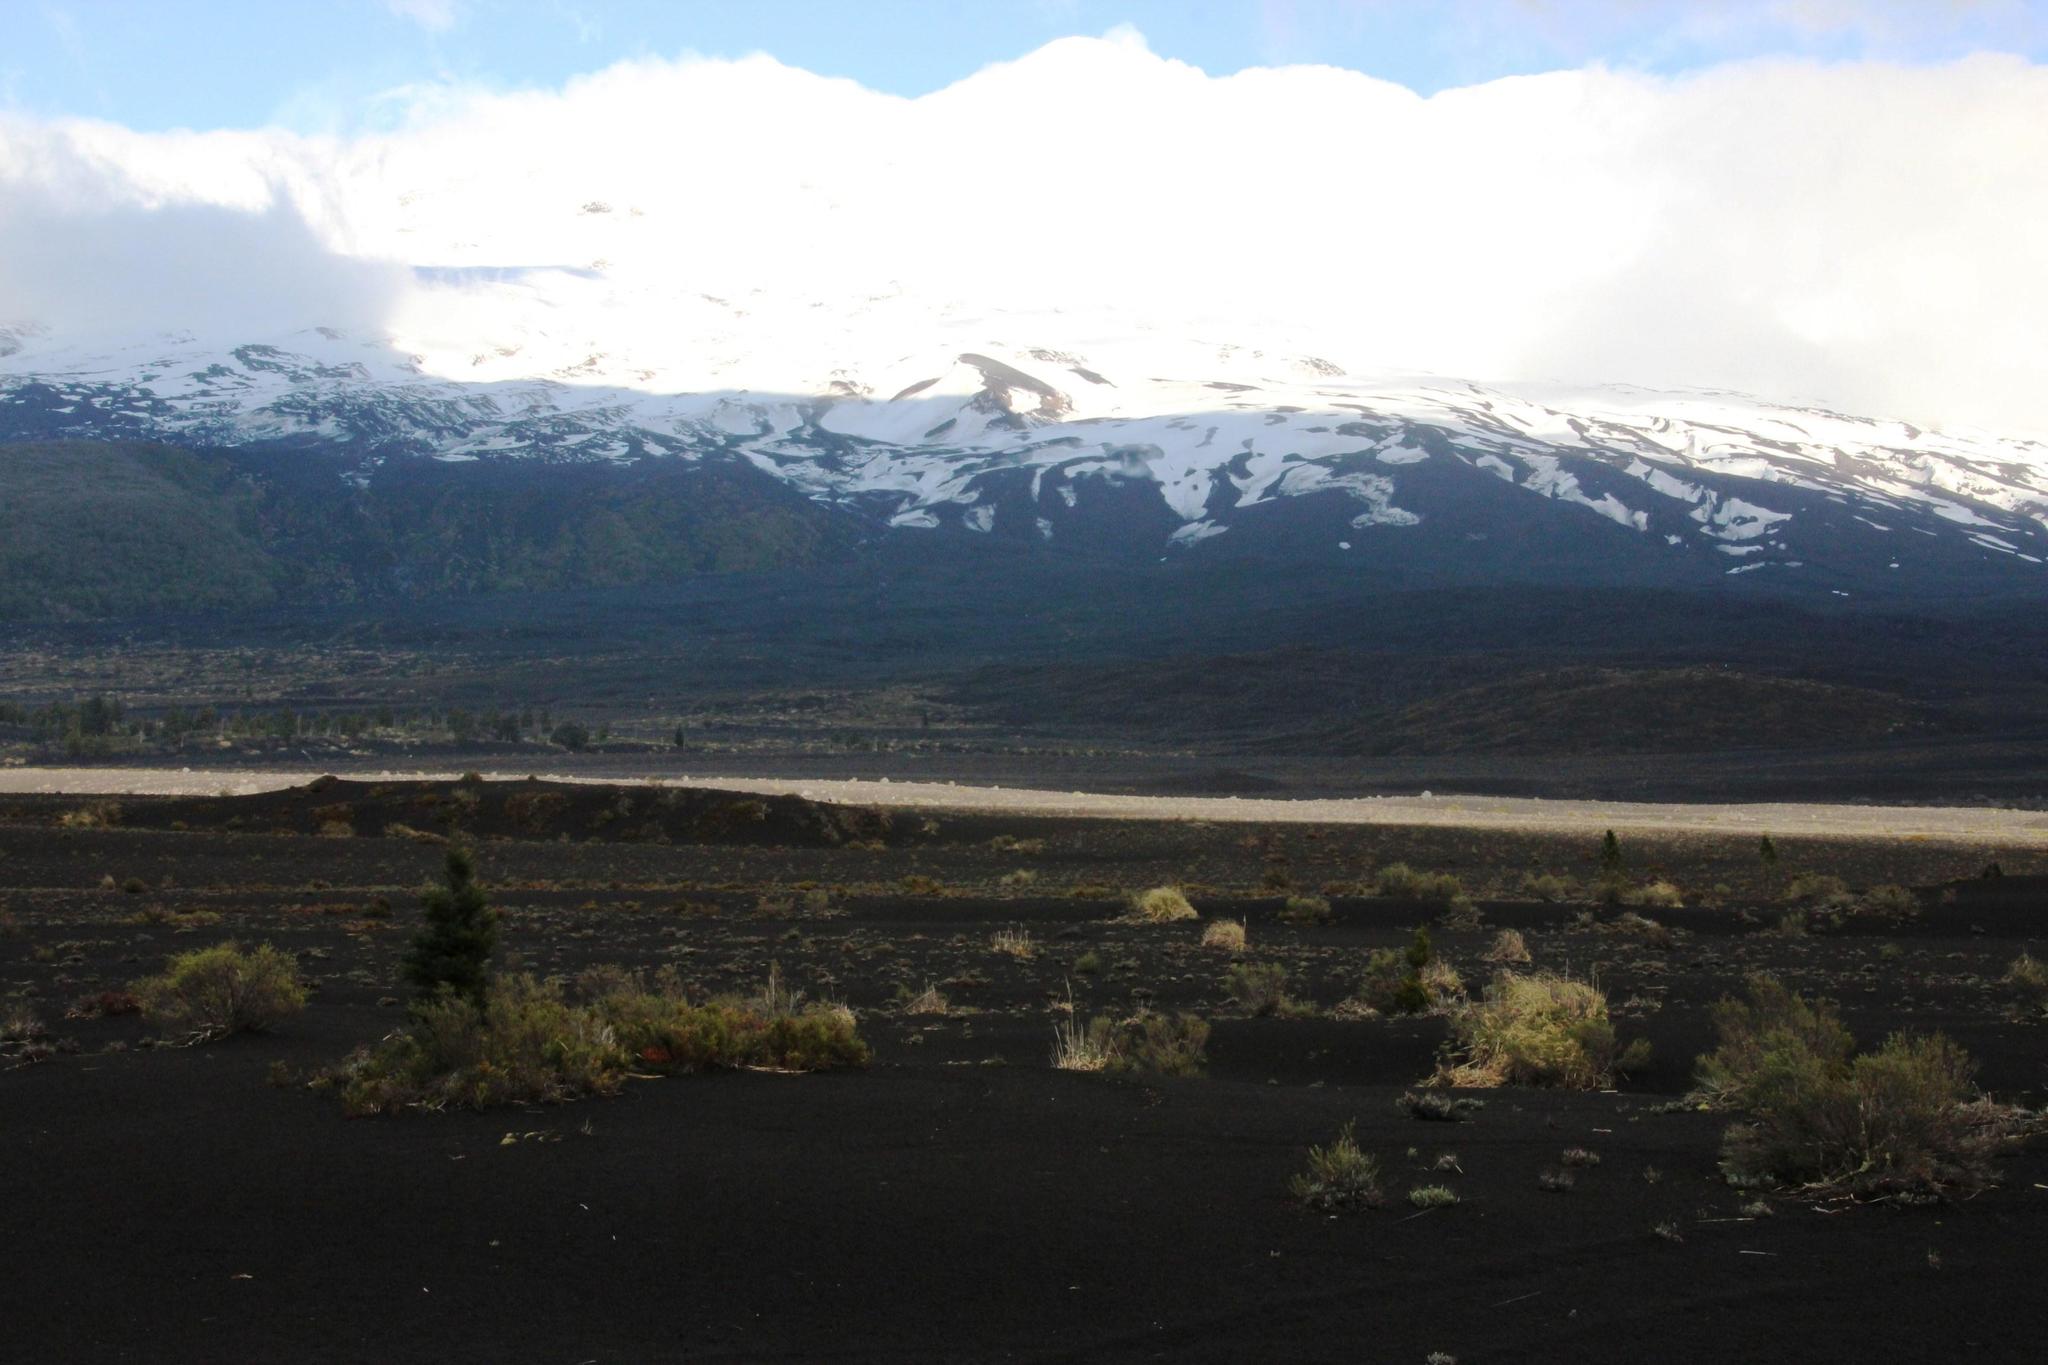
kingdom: Plantae
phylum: Tracheophyta
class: Magnoliopsida
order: Asterales
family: Asteraceae
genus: Senecio
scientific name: Senecio gilliesii
